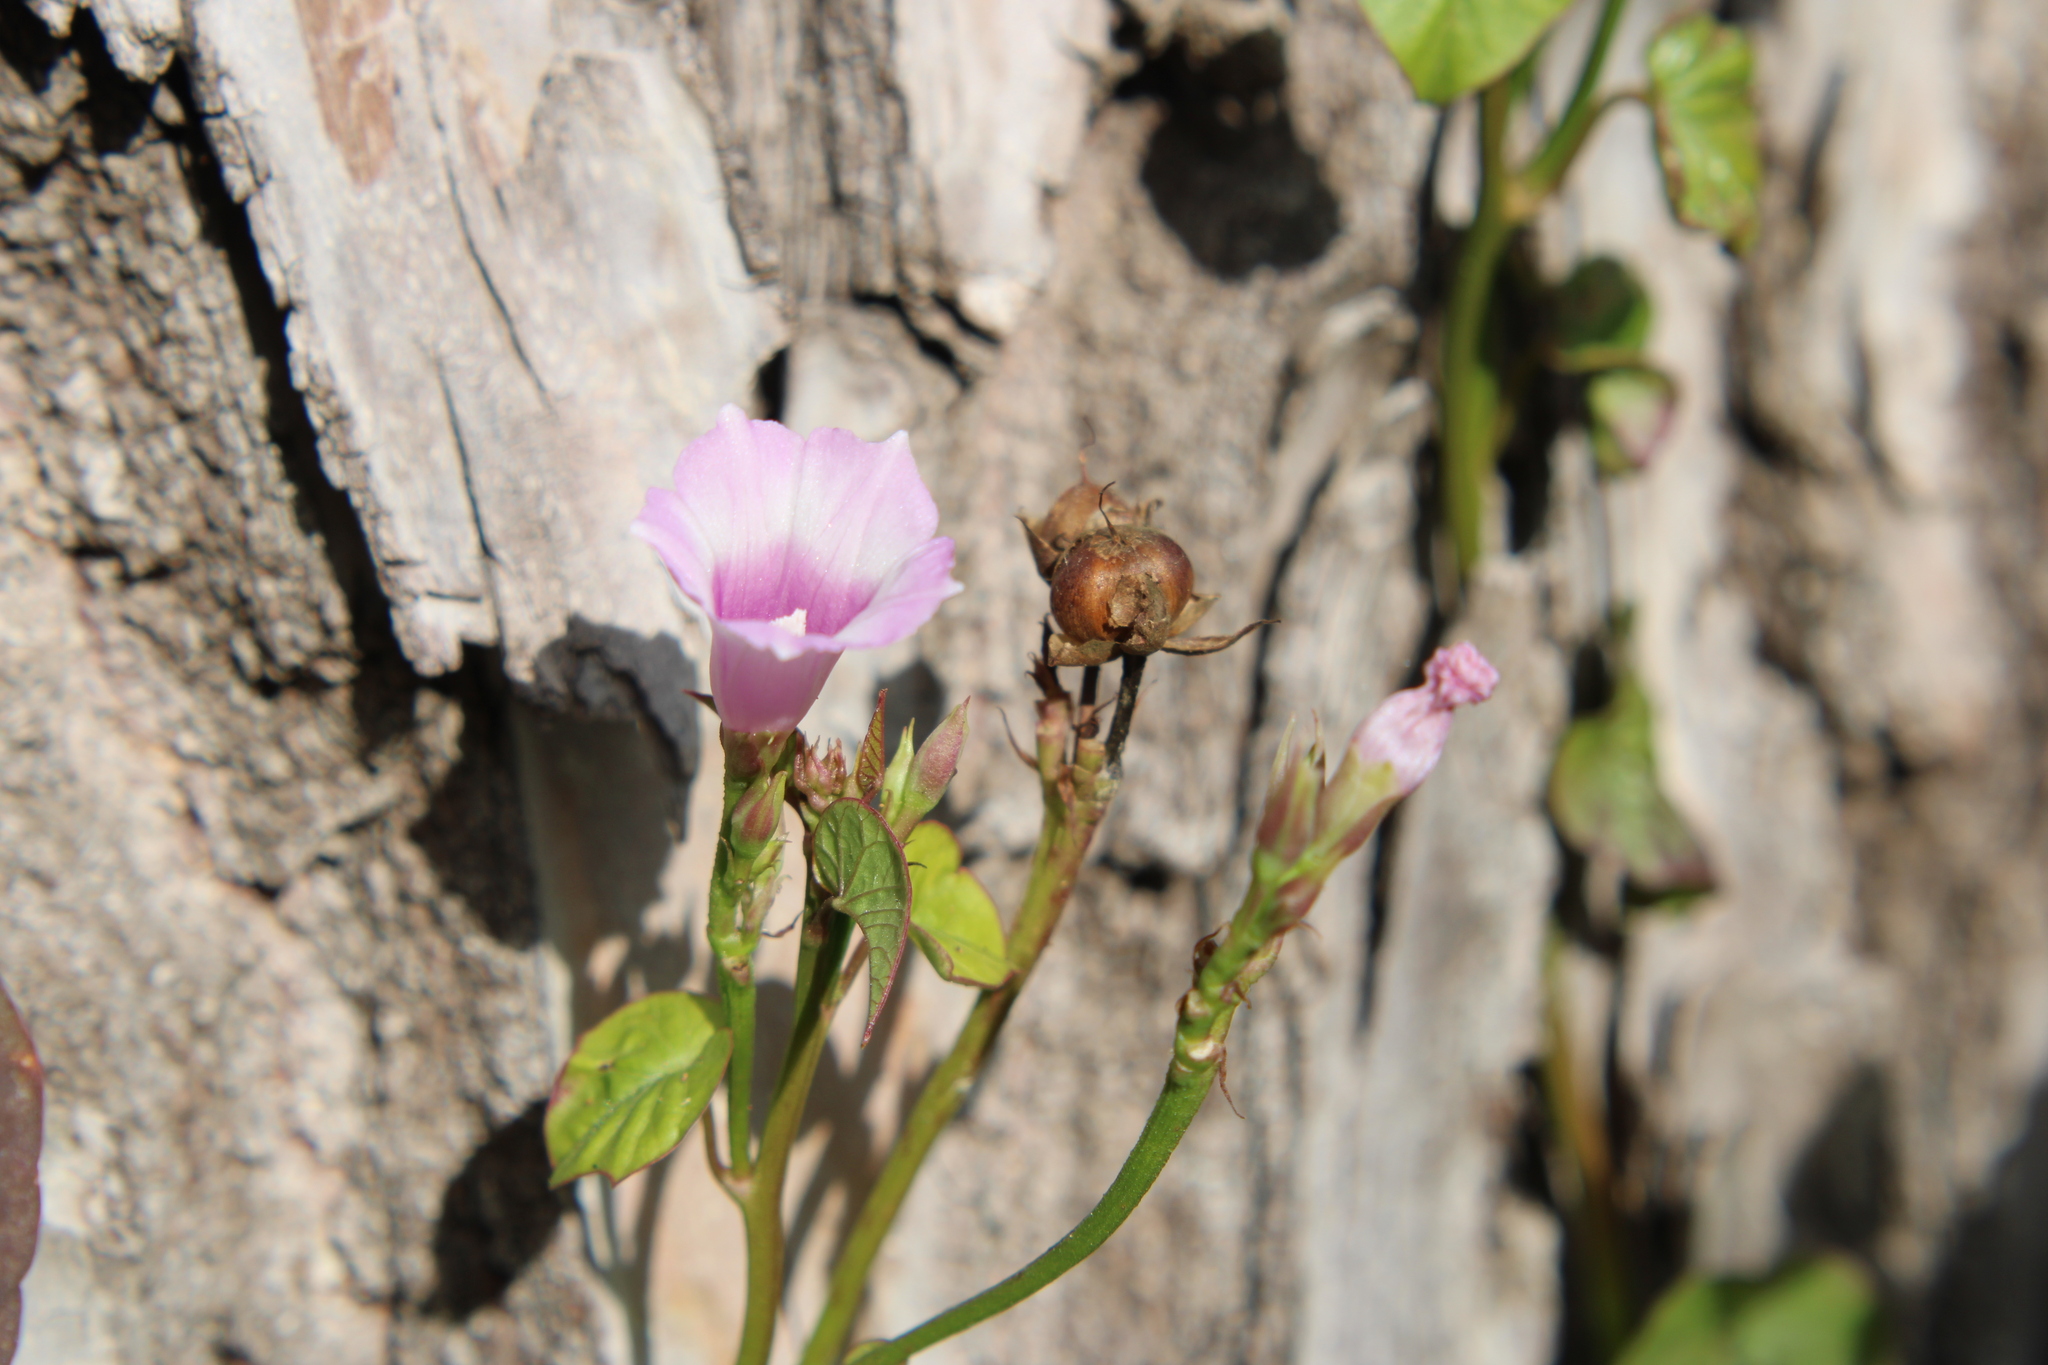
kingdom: Plantae
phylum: Tracheophyta
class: Magnoliopsida
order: Solanales
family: Convolvulaceae
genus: Ipomoea
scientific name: Ipomoea grandifolia
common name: Aiea morning glory
